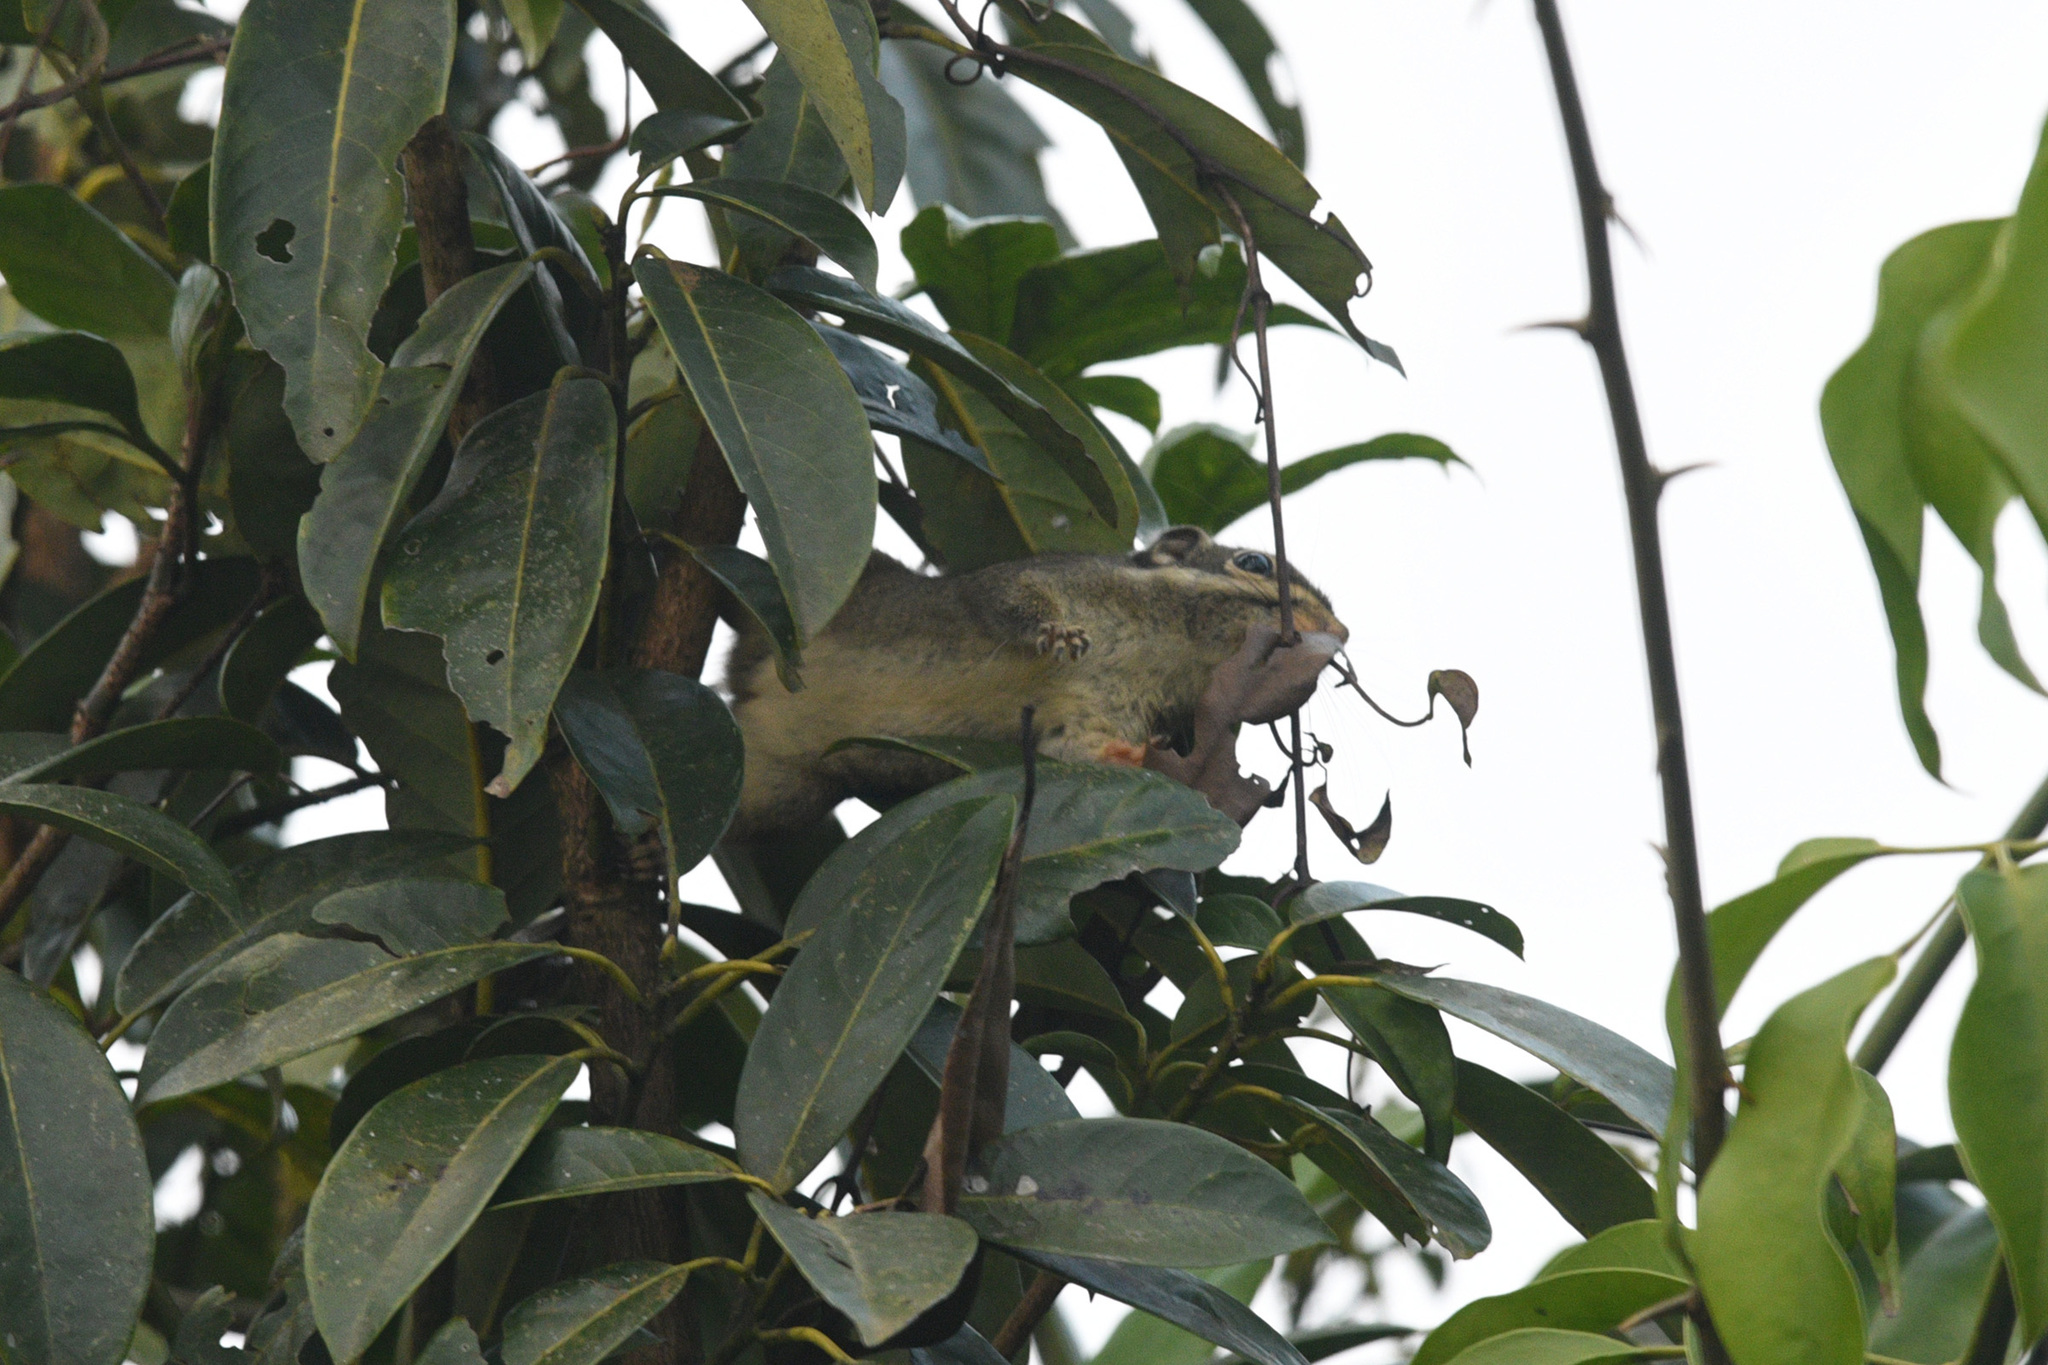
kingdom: Animalia
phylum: Chordata
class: Mammalia
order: Rodentia
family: Sciuridae
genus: Tamiops
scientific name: Tamiops maritimus
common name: Maritime striped squirrel
